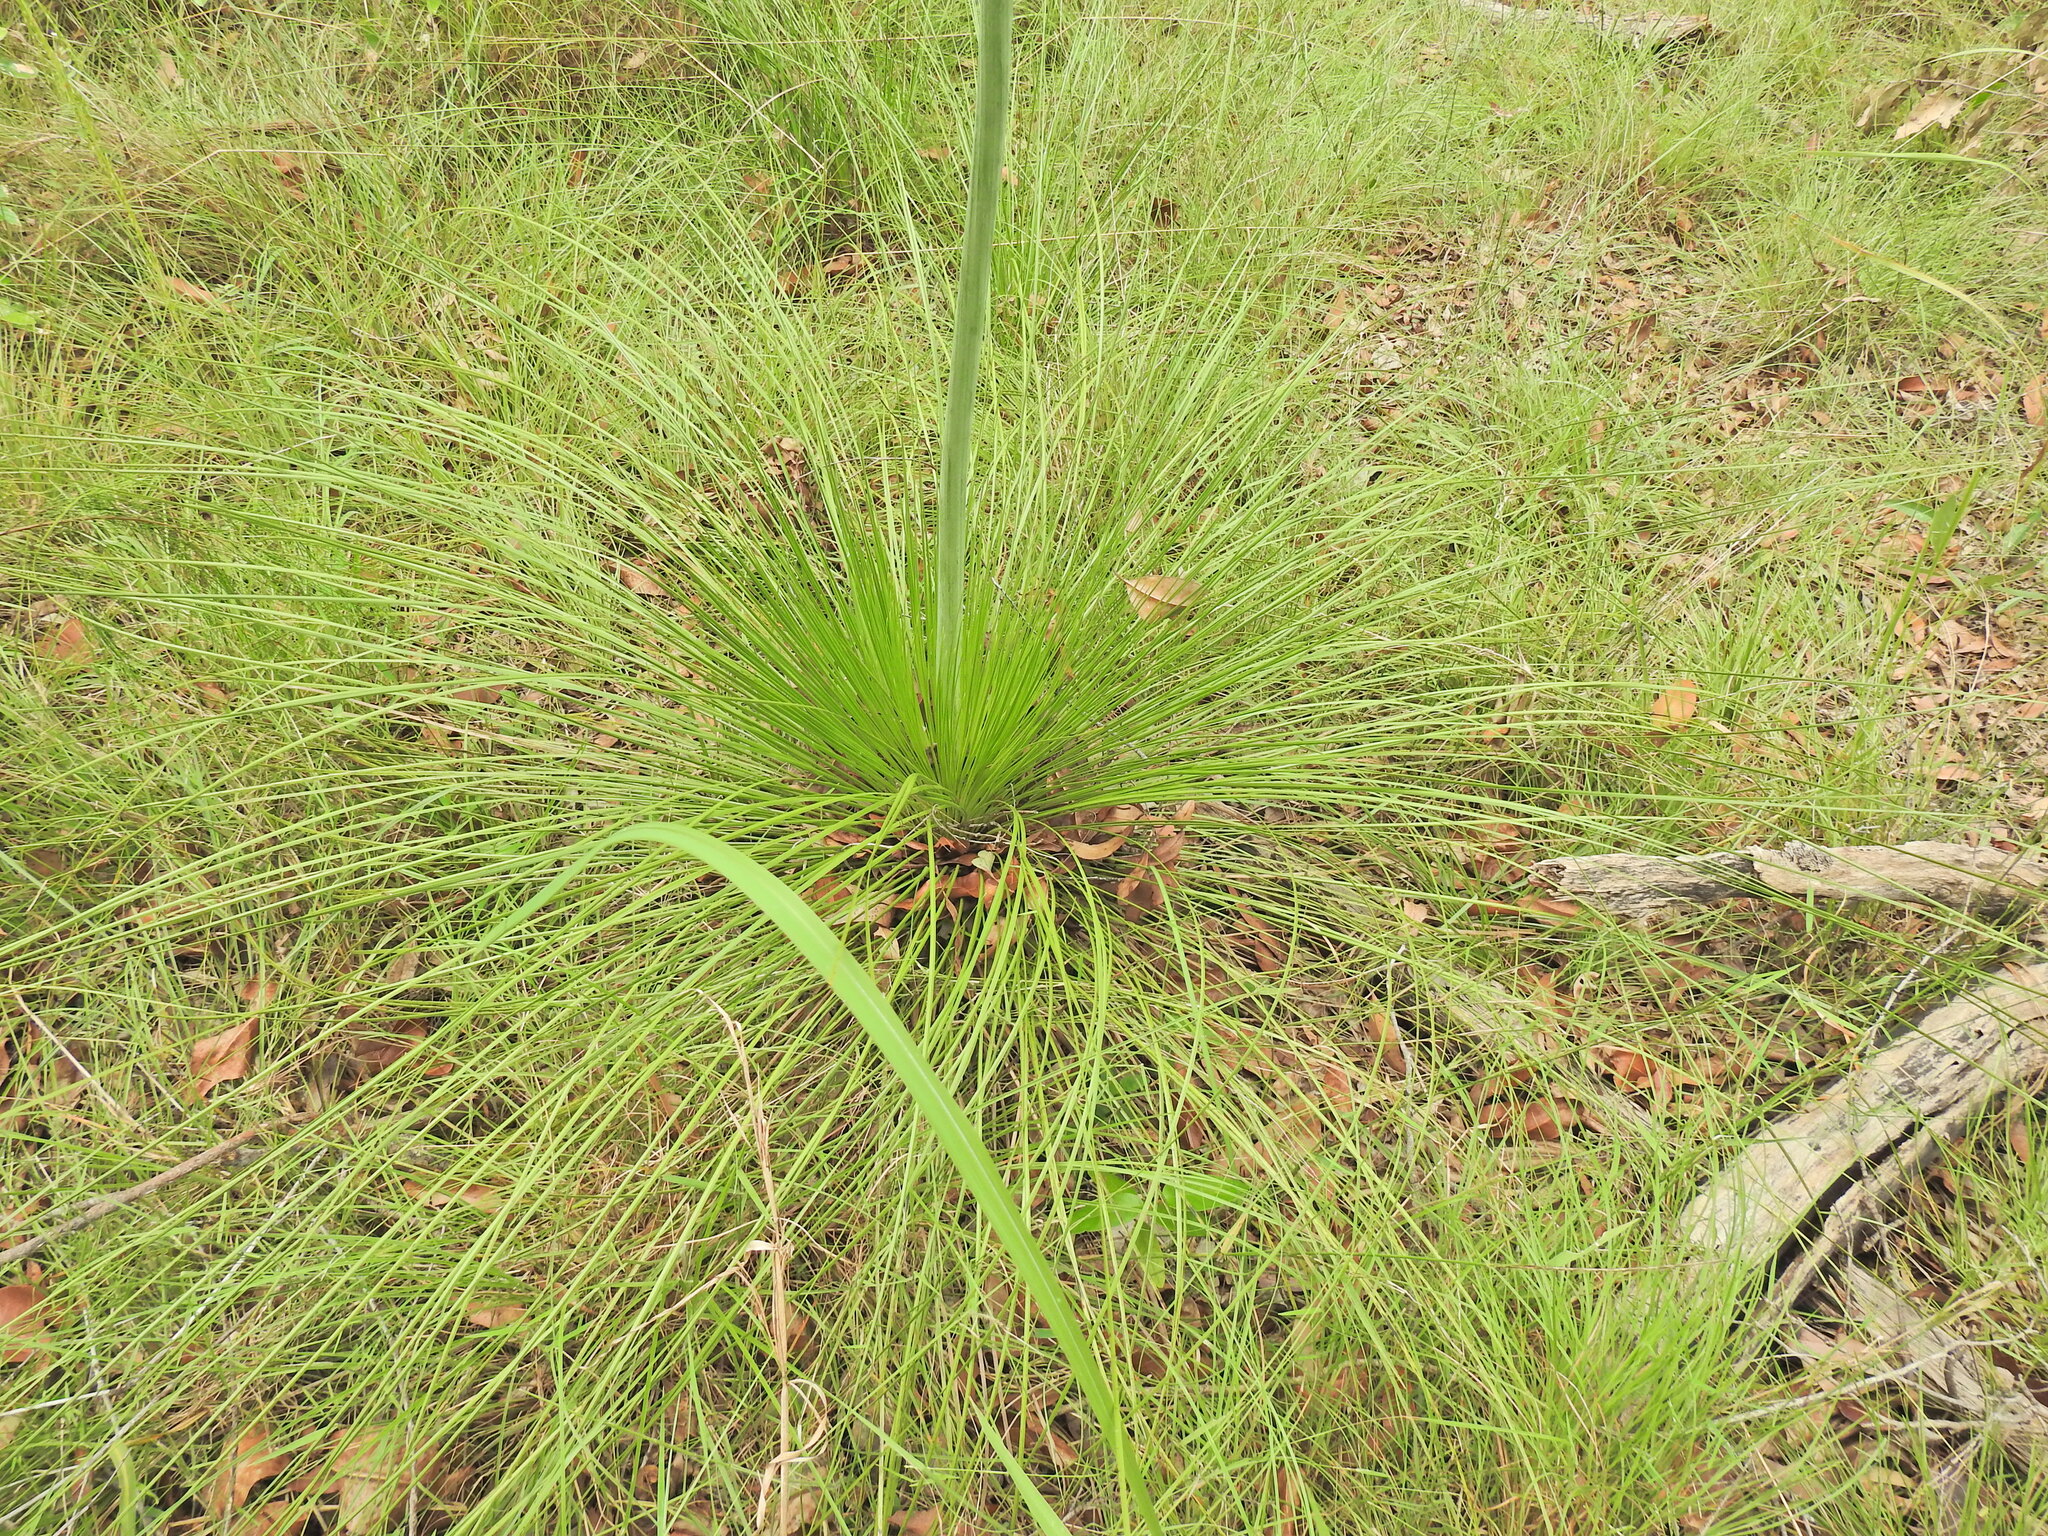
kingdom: Plantae
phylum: Tracheophyta
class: Liliopsida
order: Asparagales
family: Asphodelaceae
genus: Xanthorrhoea
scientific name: Xanthorrhoea latifolia
